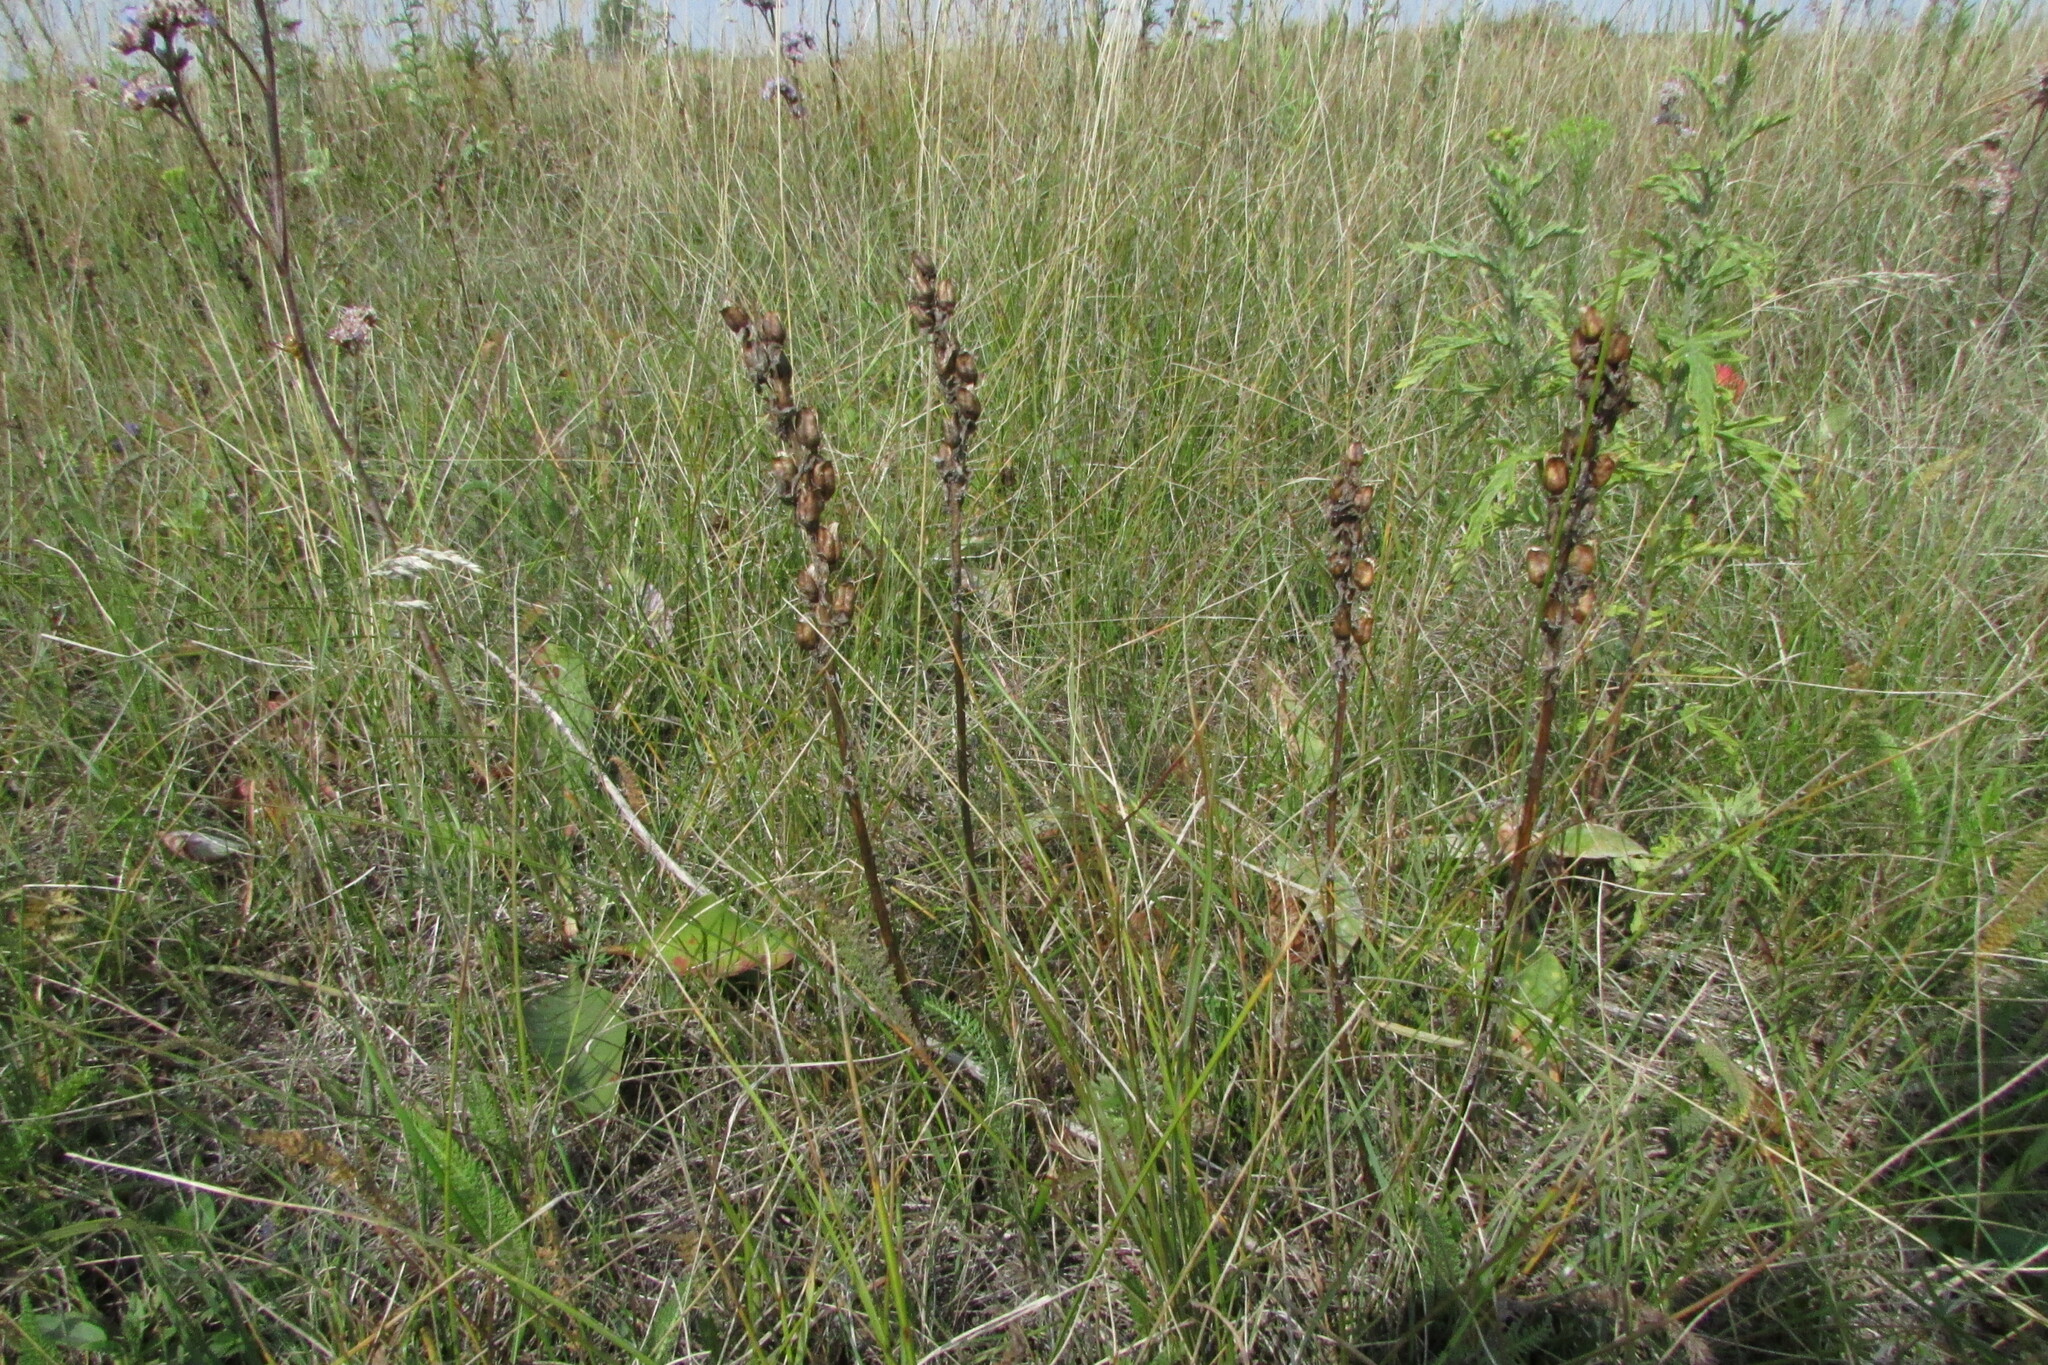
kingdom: Plantae
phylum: Tracheophyta
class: Magnoliopsida
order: Lamiales
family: Orobanchaceae
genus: Pedicularis
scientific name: Pedicularis dasystachys
